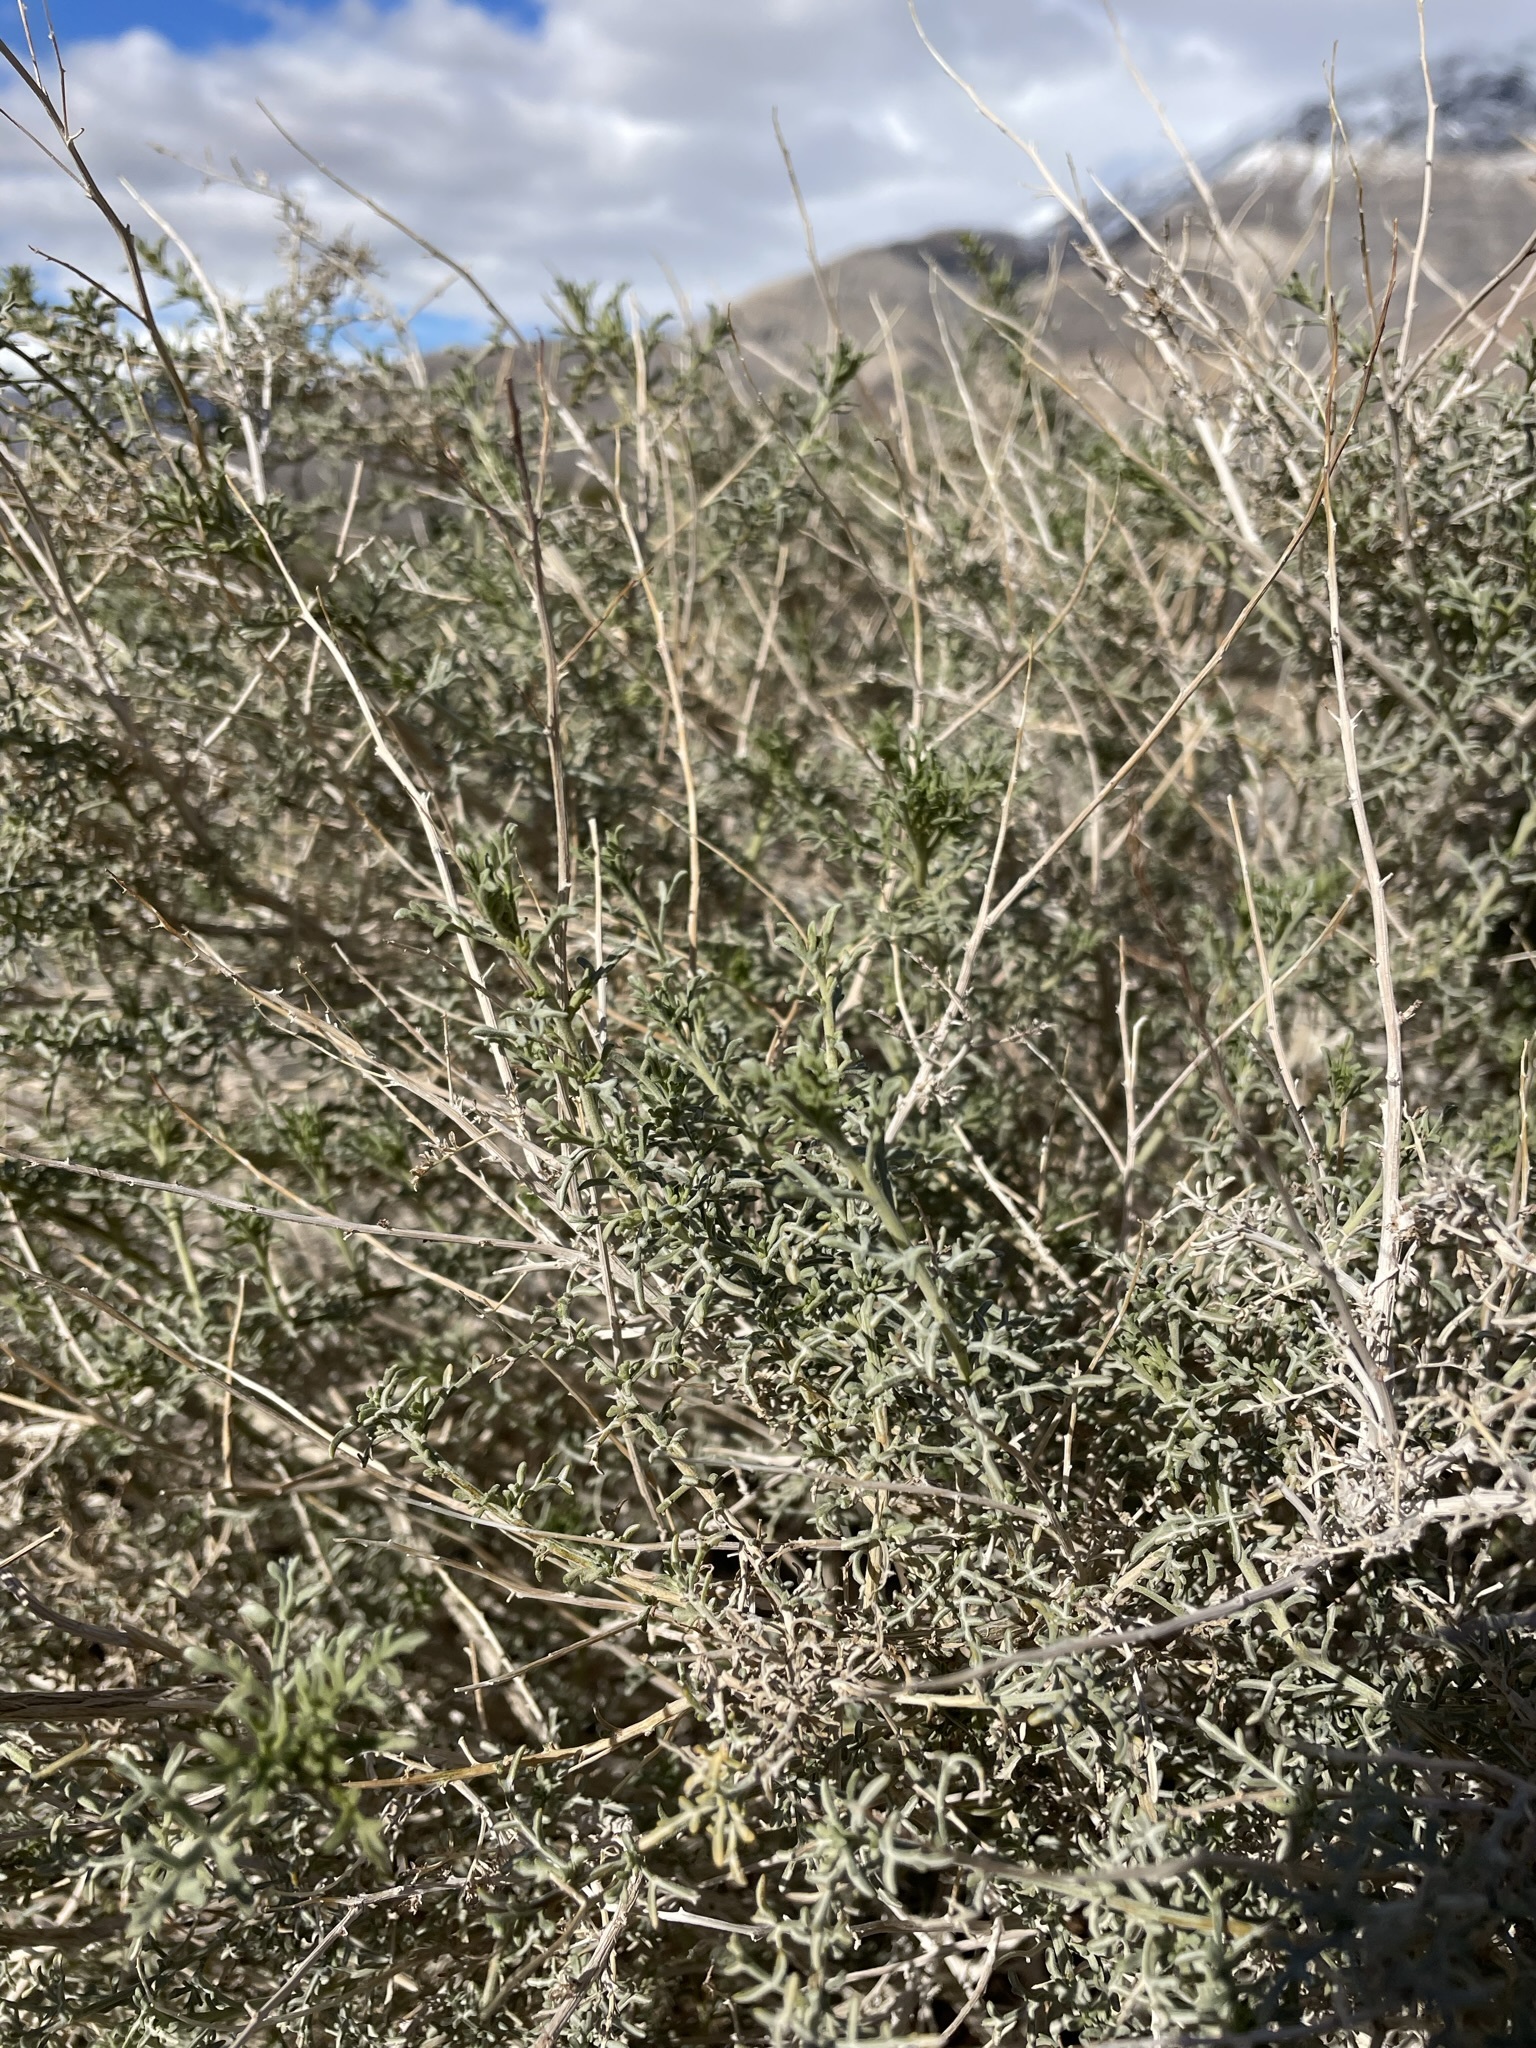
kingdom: Plantae
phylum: Tracheophyta
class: Magnoliopsida
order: Asterales
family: Asteraceae
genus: Ambrosia
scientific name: Ambrosia platyspina
